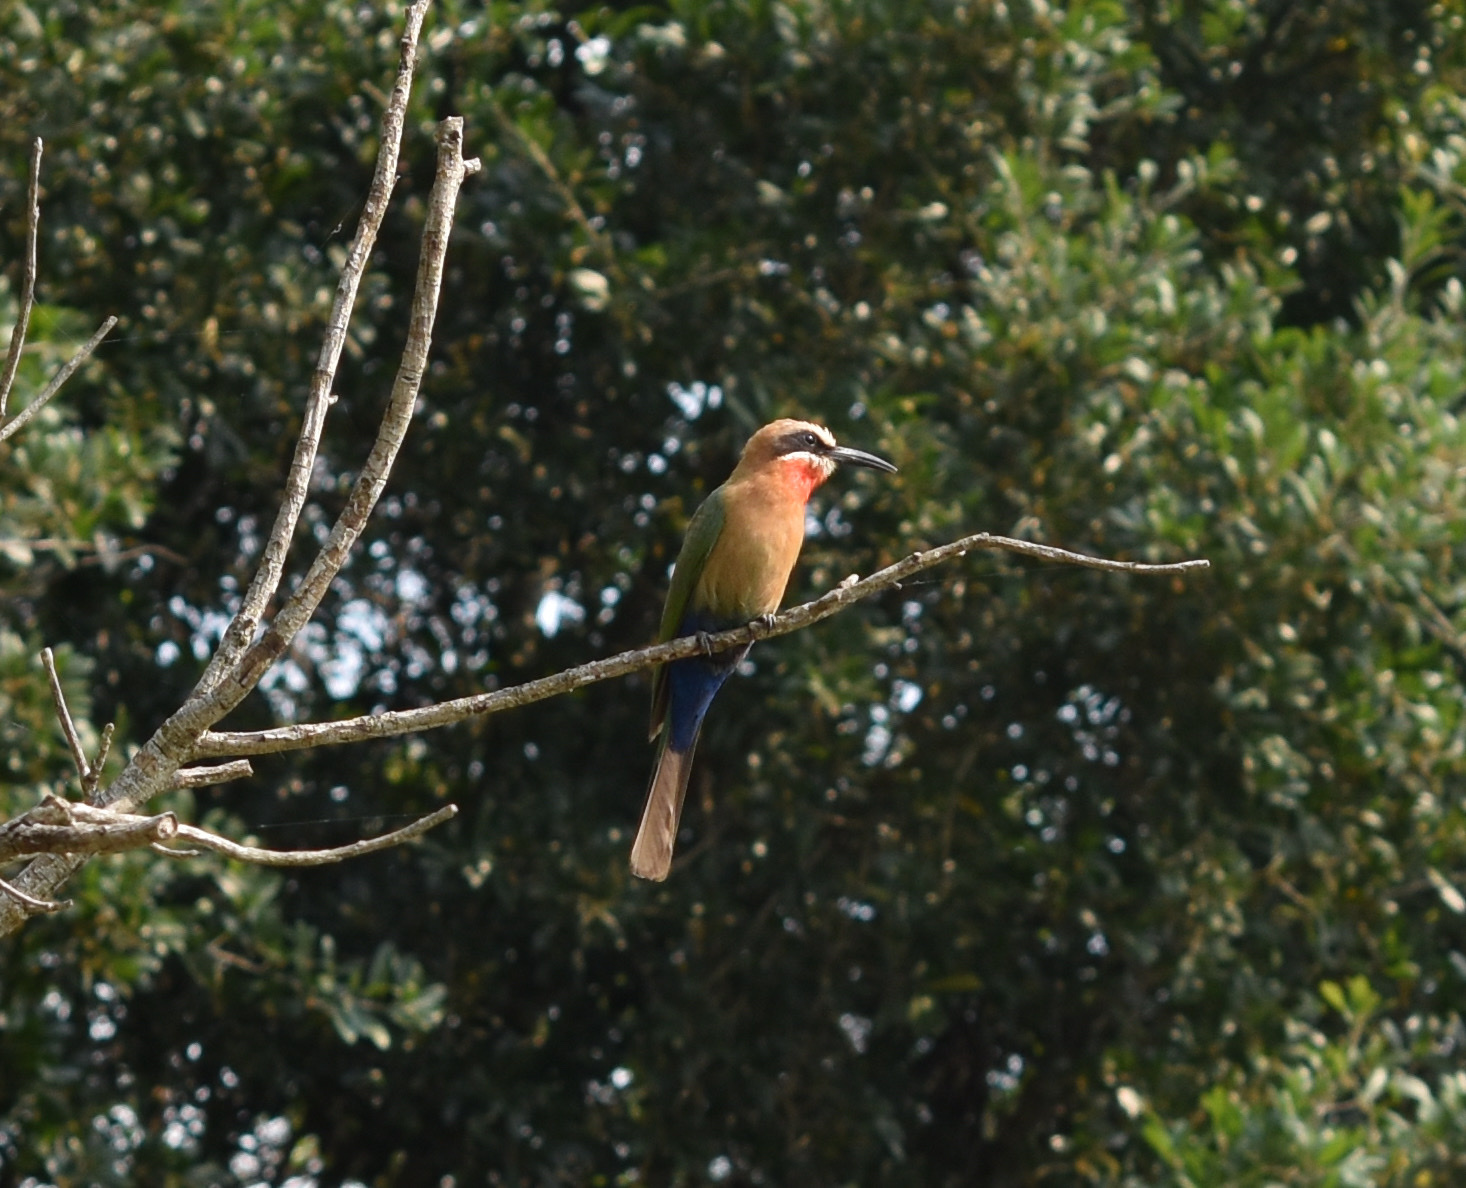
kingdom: Animalia
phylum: Chordata
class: Aves
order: Coraciiformes
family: Meropidae
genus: Merops
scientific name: Merops bullockoides
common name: White-fronted bee-eater
